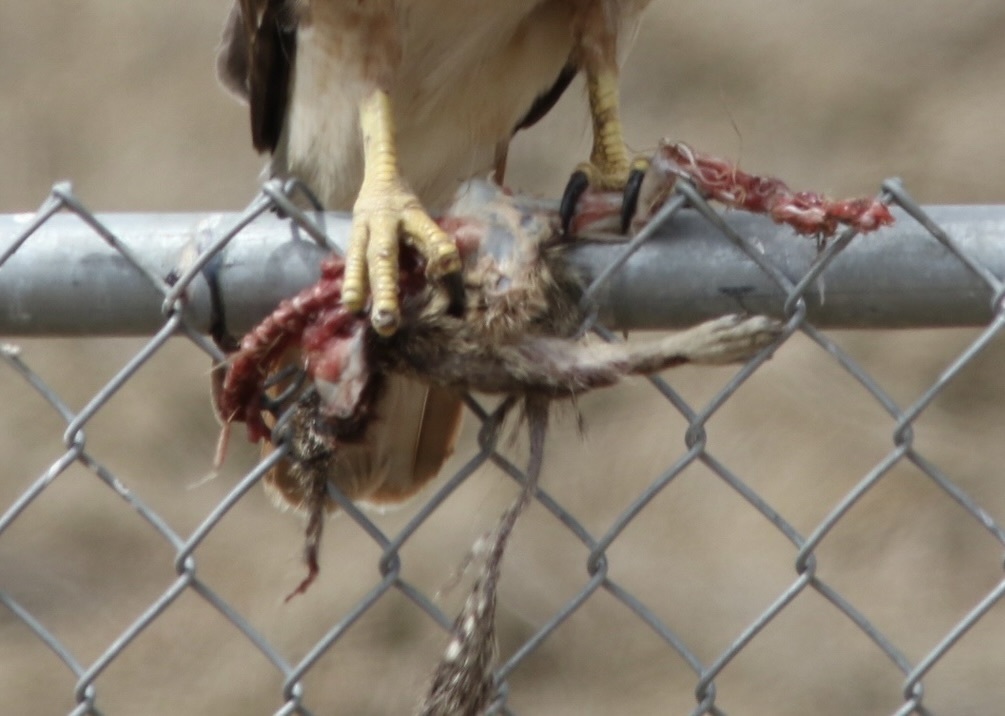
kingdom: Animalia
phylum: Chordata
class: Mammalia
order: Rodentia
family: Sciuridae
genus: Otospermophilus
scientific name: Otospermophilus beecheyi
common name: California ground squirrel
